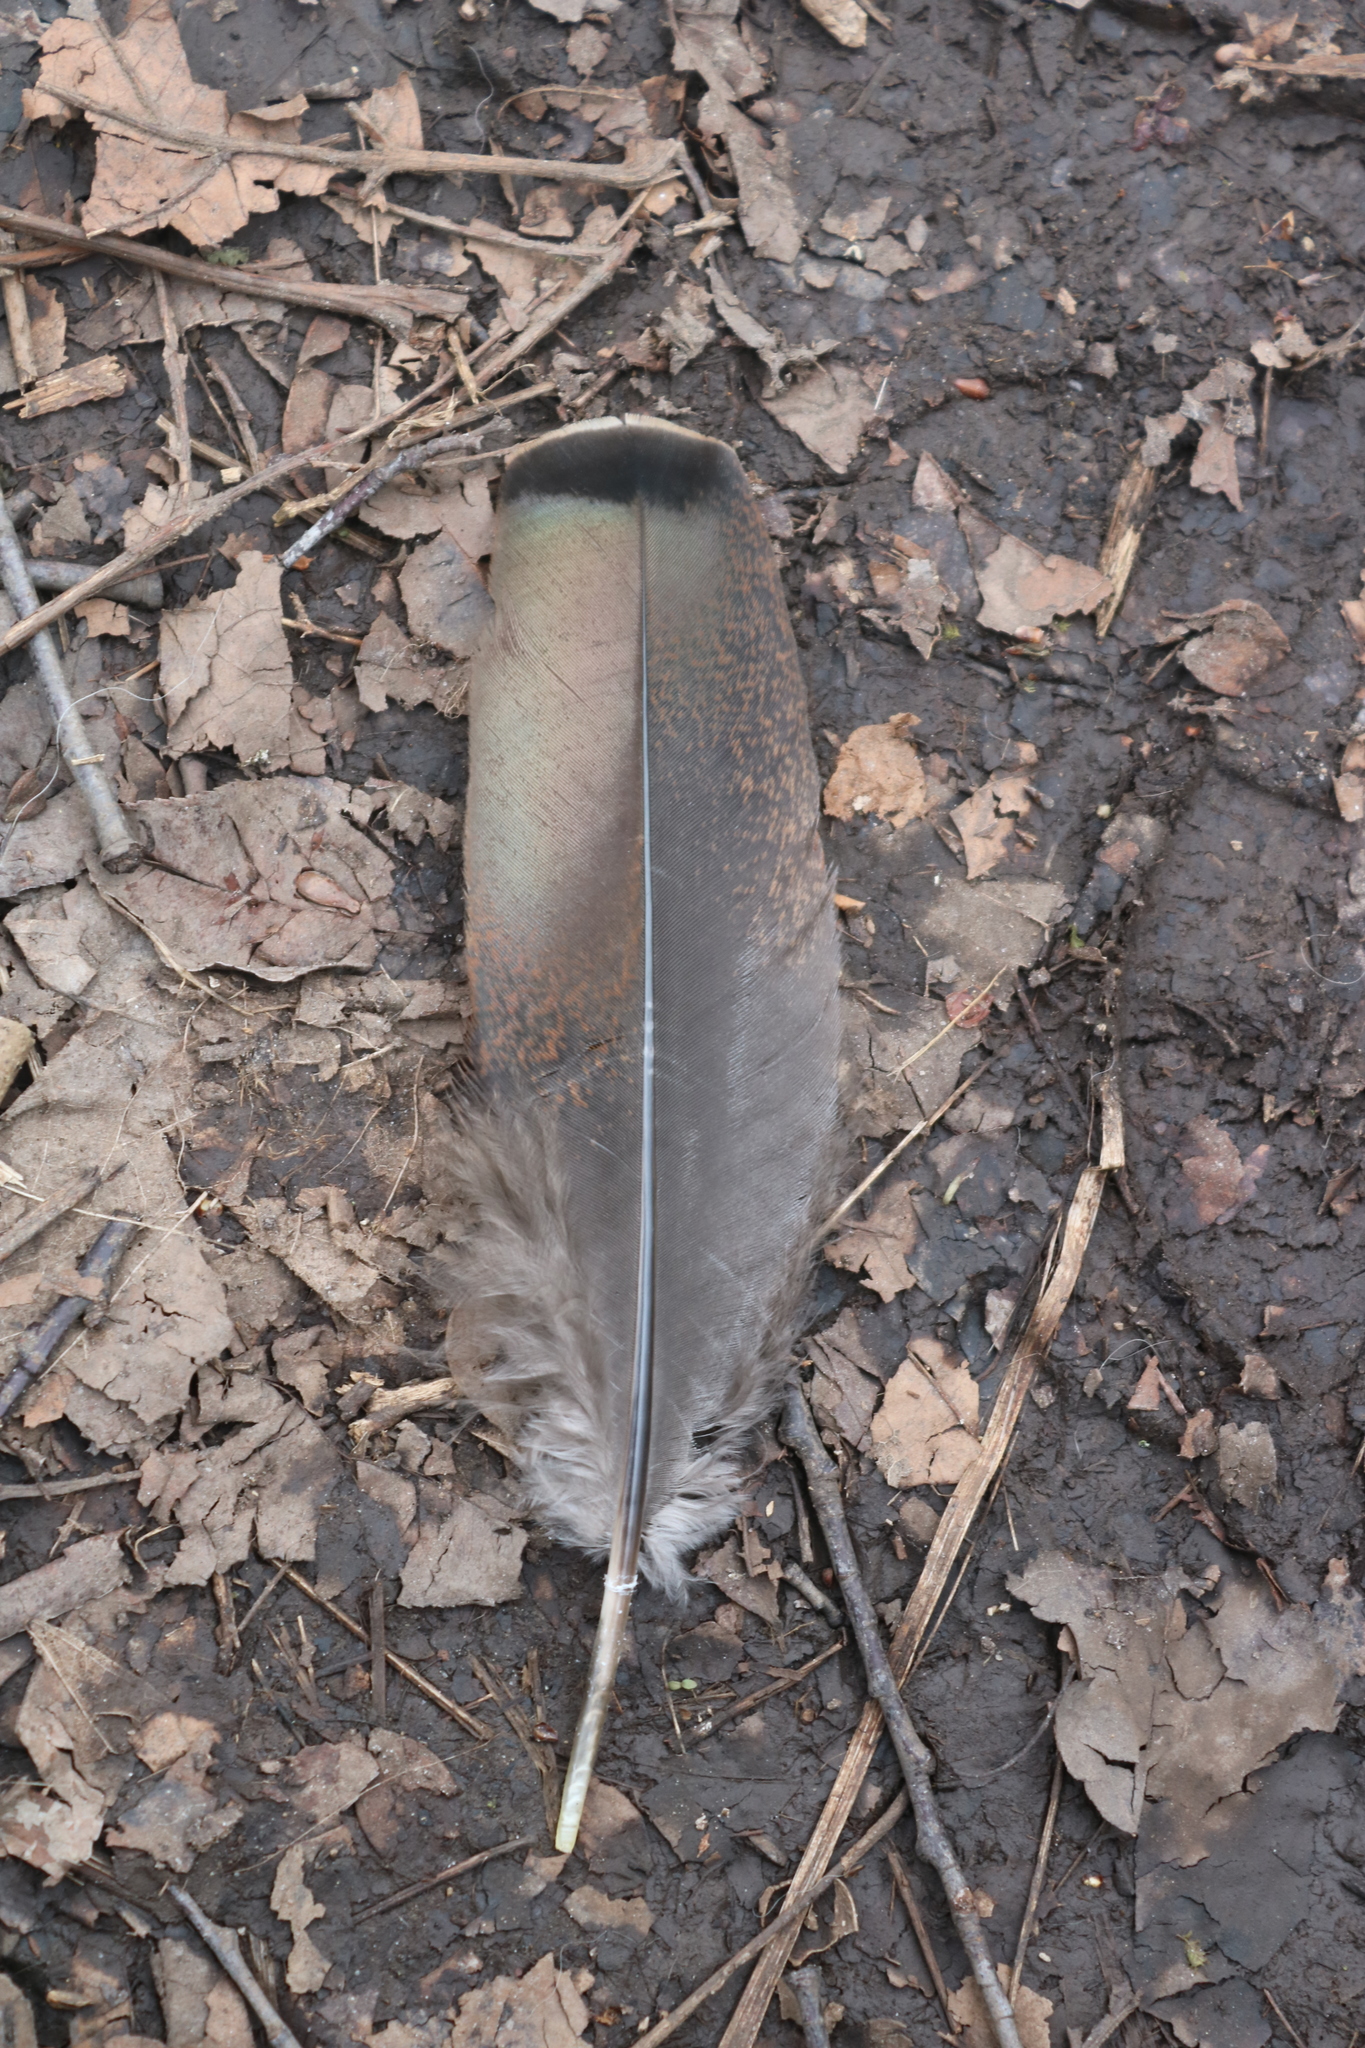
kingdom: Animalia
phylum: Chordata
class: Aves
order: Galliformes
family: Phasianidae
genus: Meleagris
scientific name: Meleagris gallopavo
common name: Wild turkey
